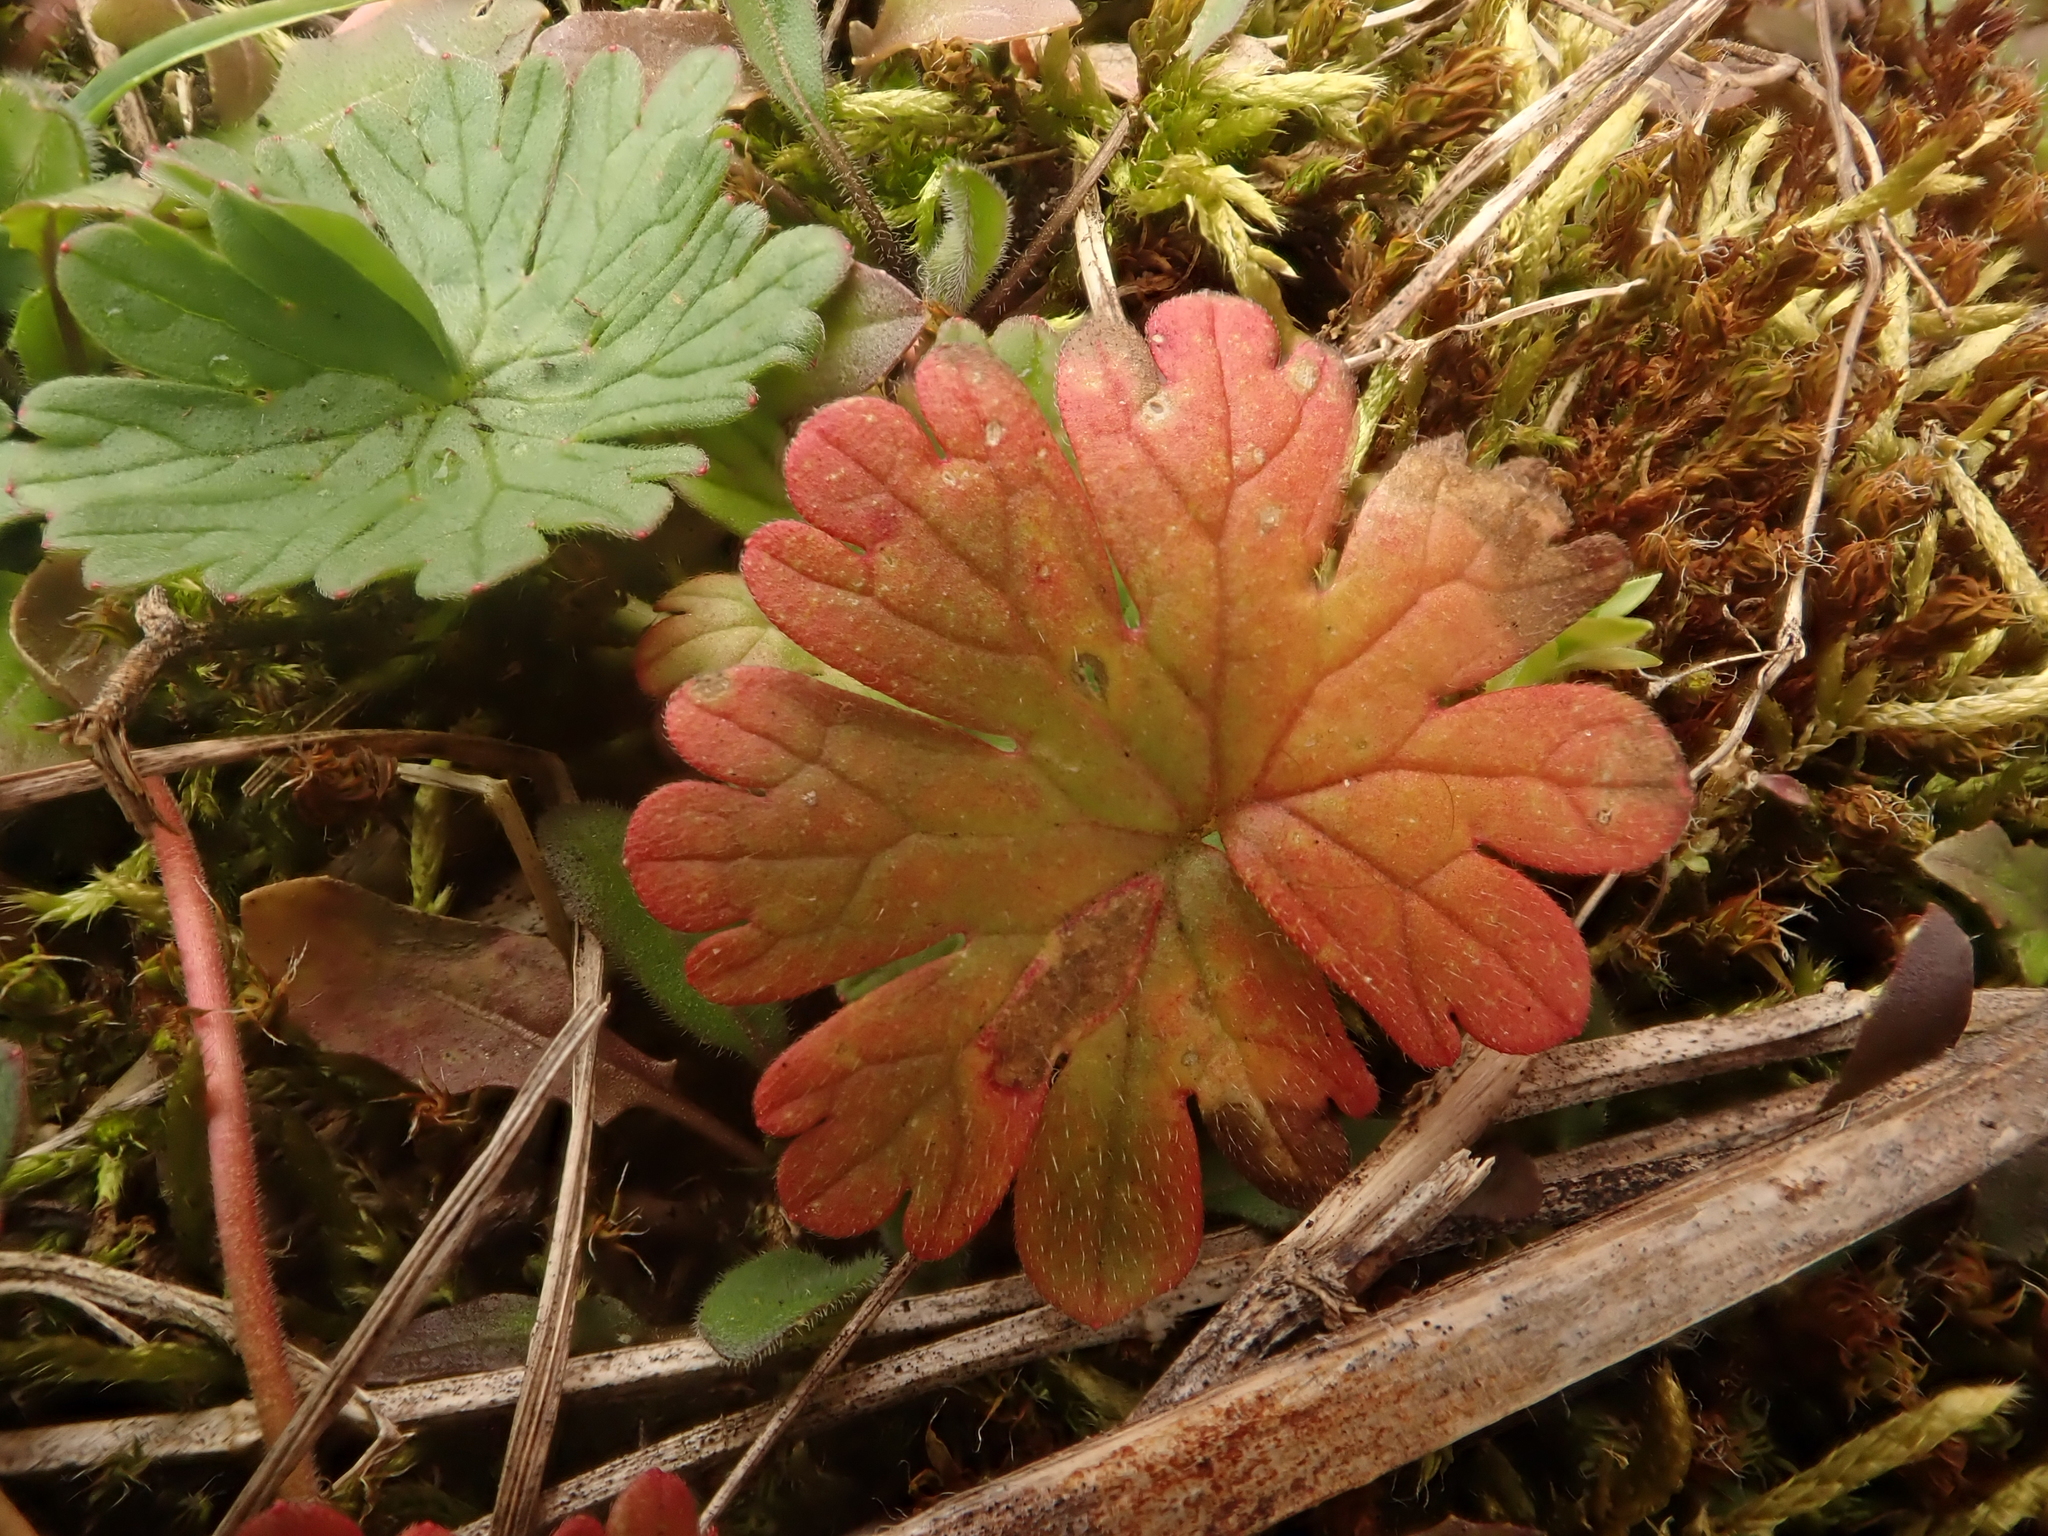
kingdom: Plantae
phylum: Tracheophyta
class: Magnoliopsida
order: Geraniales
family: Geraniaceae
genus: Geranium
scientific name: Geranium molle
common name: Dove's-foot crane's-bill
